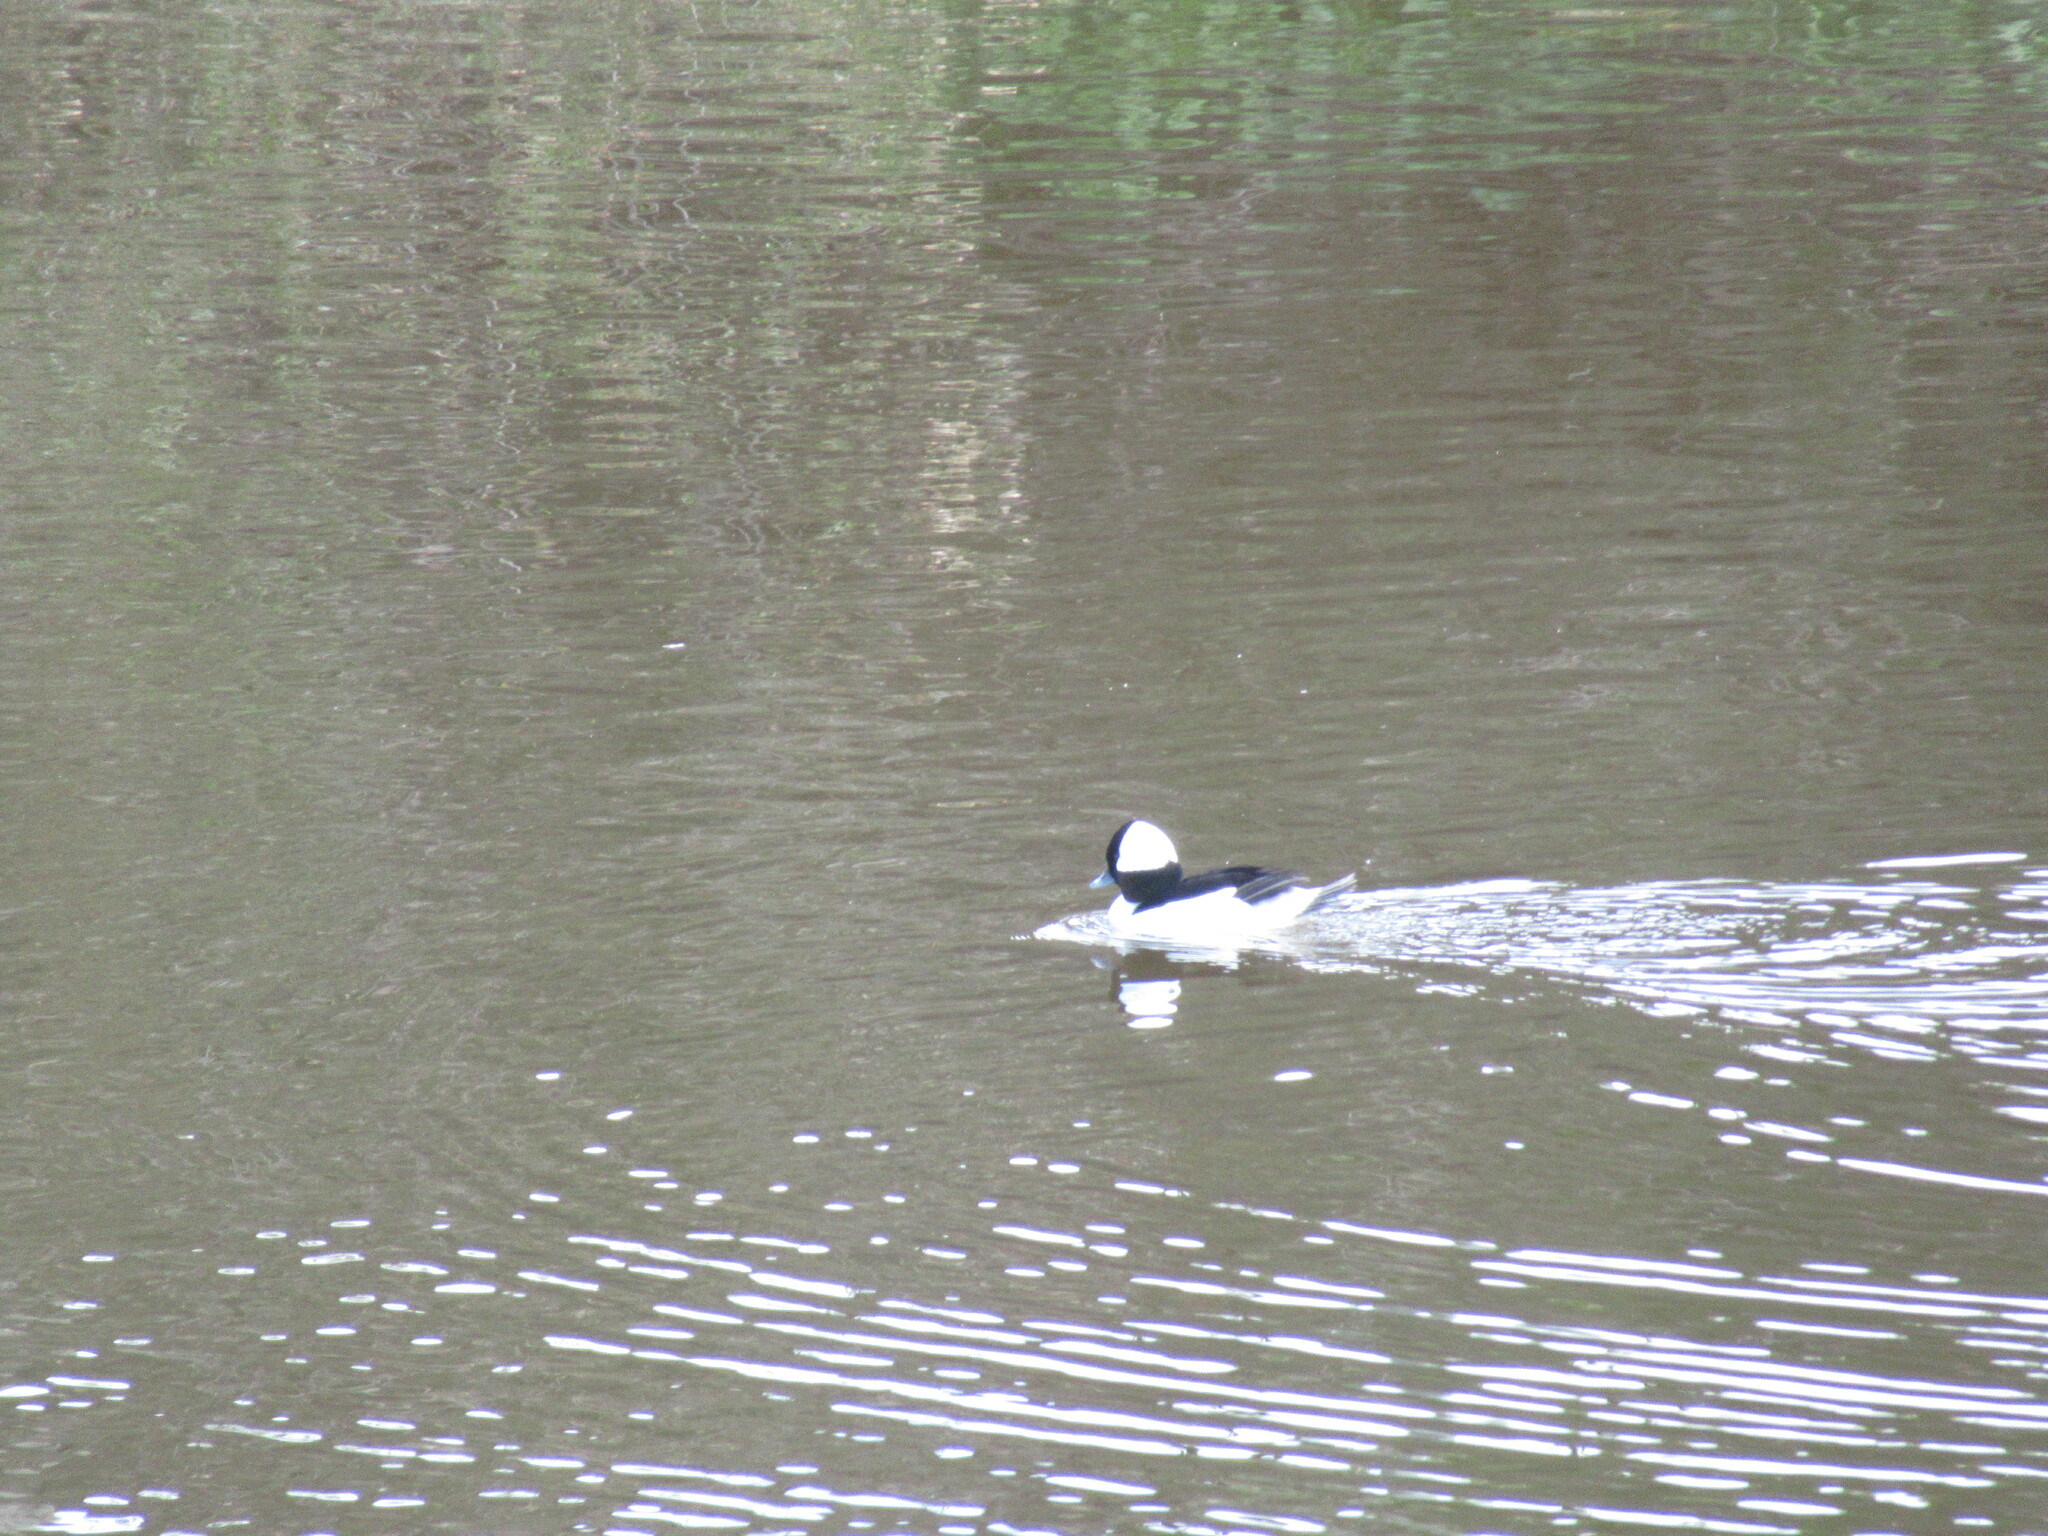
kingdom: Animalia
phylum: Chordata
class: Aves
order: Anseriformes
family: Anatidae
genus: Bucephala
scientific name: Bucephala albeola
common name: Bufflehead
